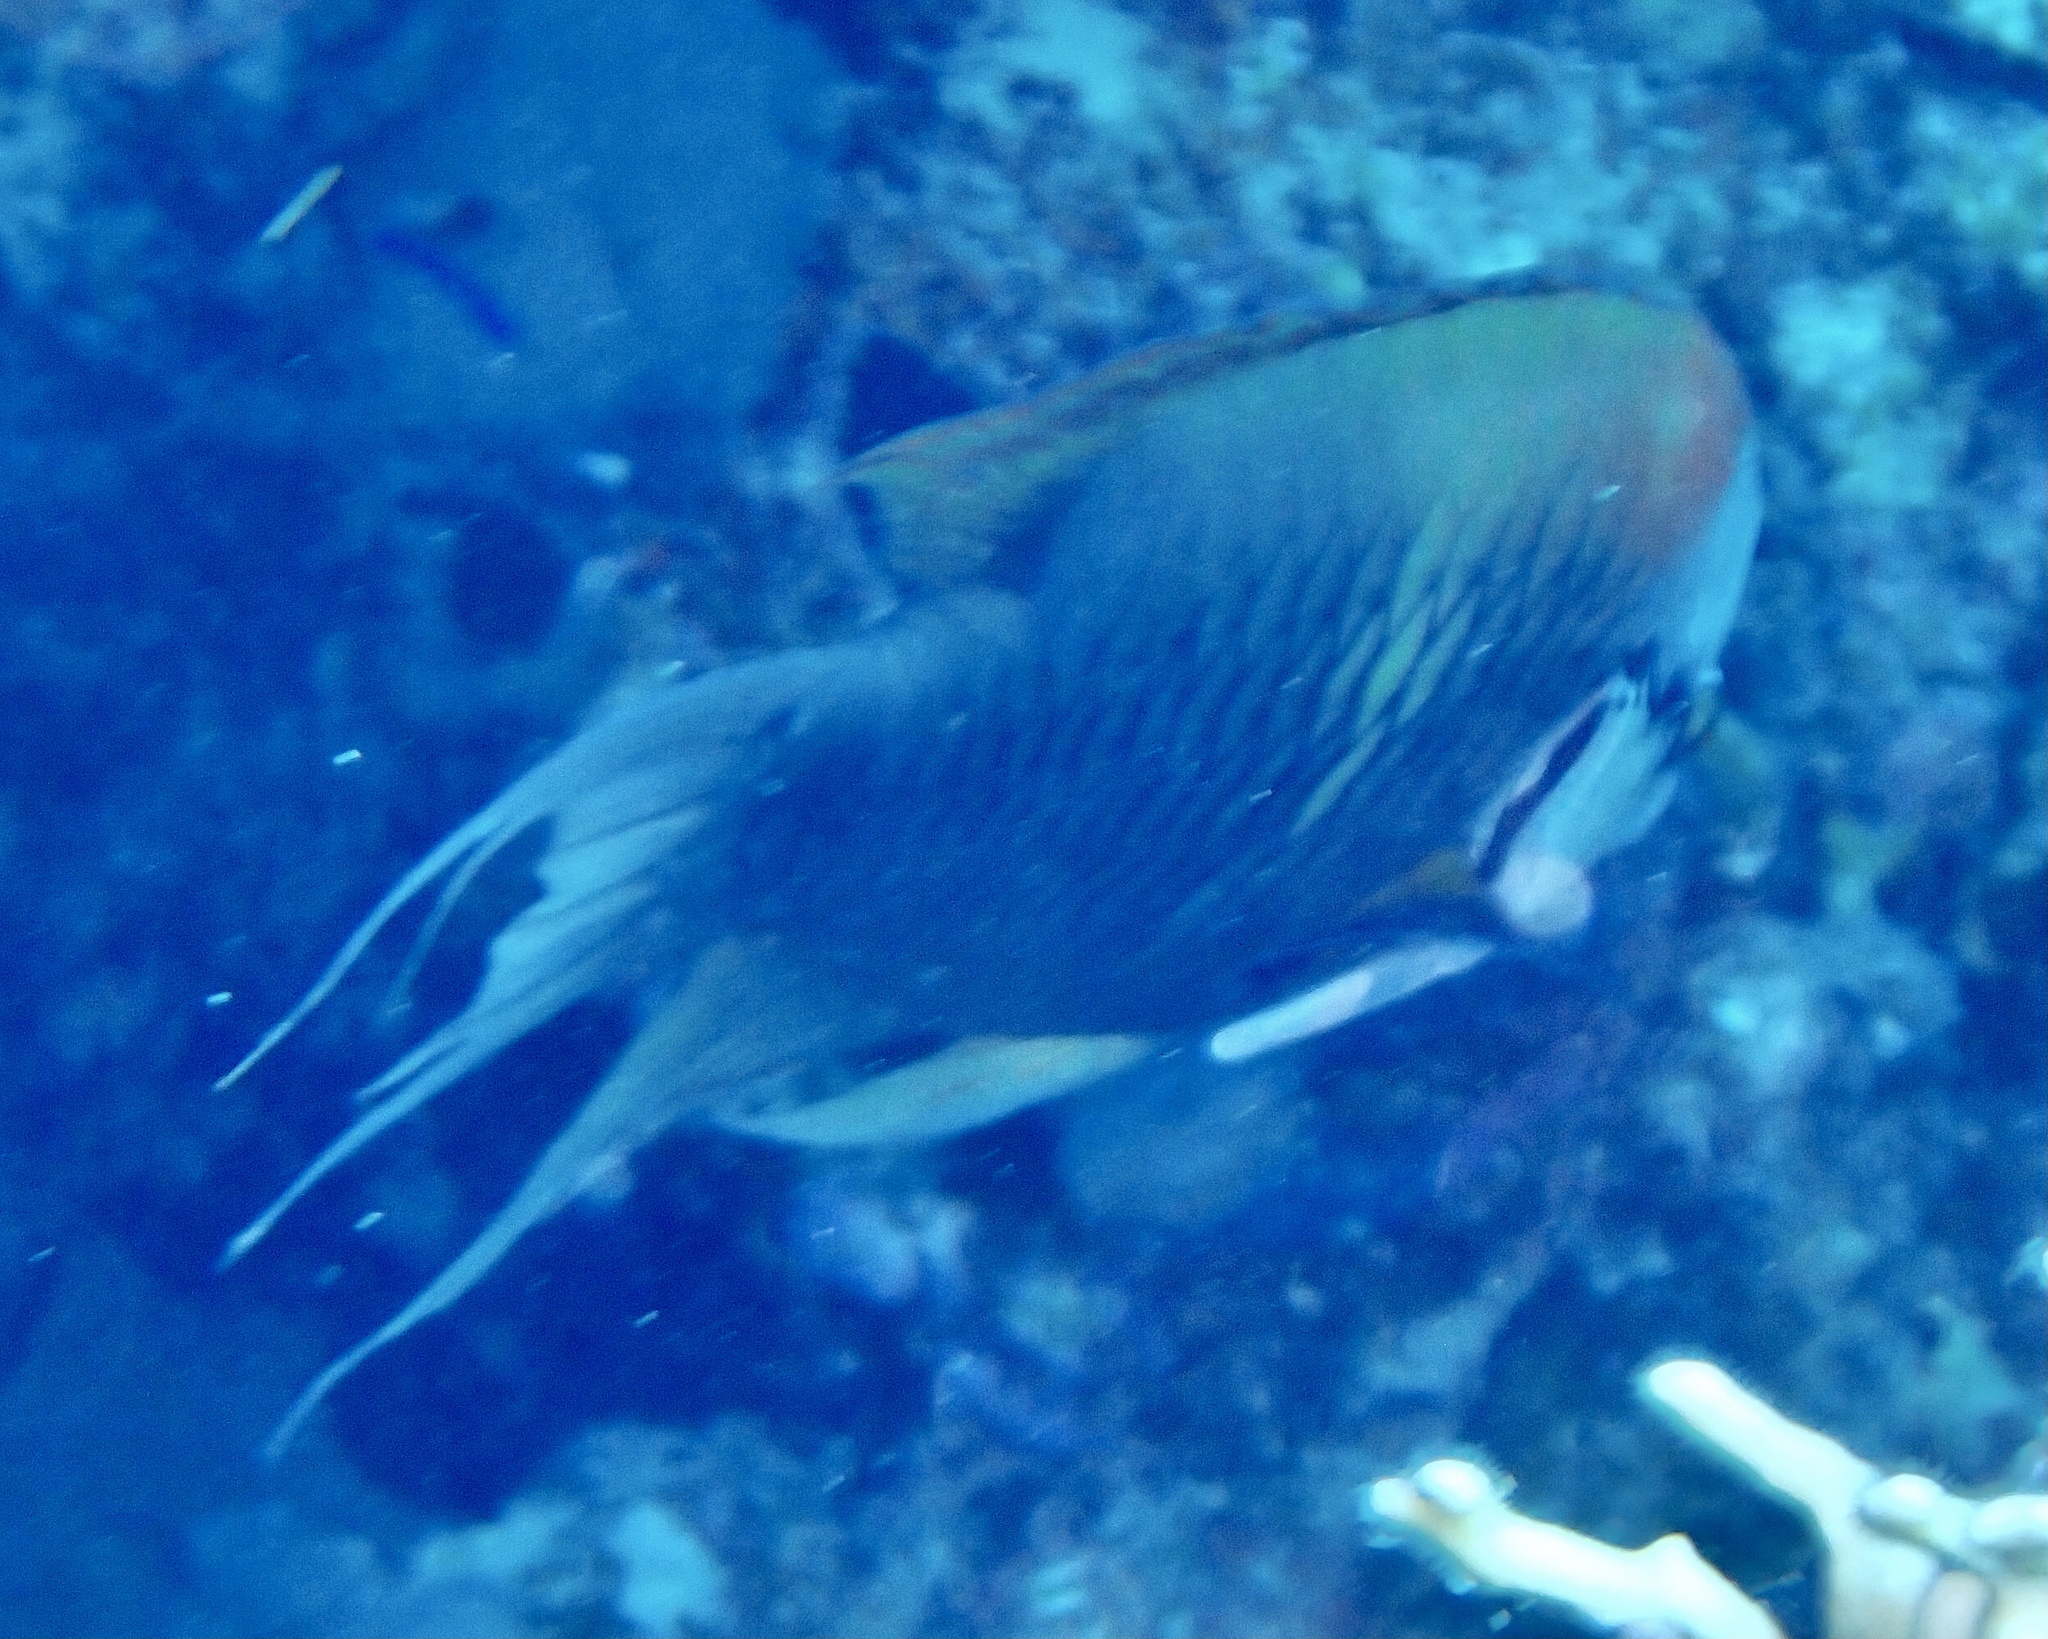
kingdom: Animalia
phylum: Chordata
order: Perciformes
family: Labridae
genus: Epibulus
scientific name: Epibulus insidiator
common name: Slingjaw wrasse
